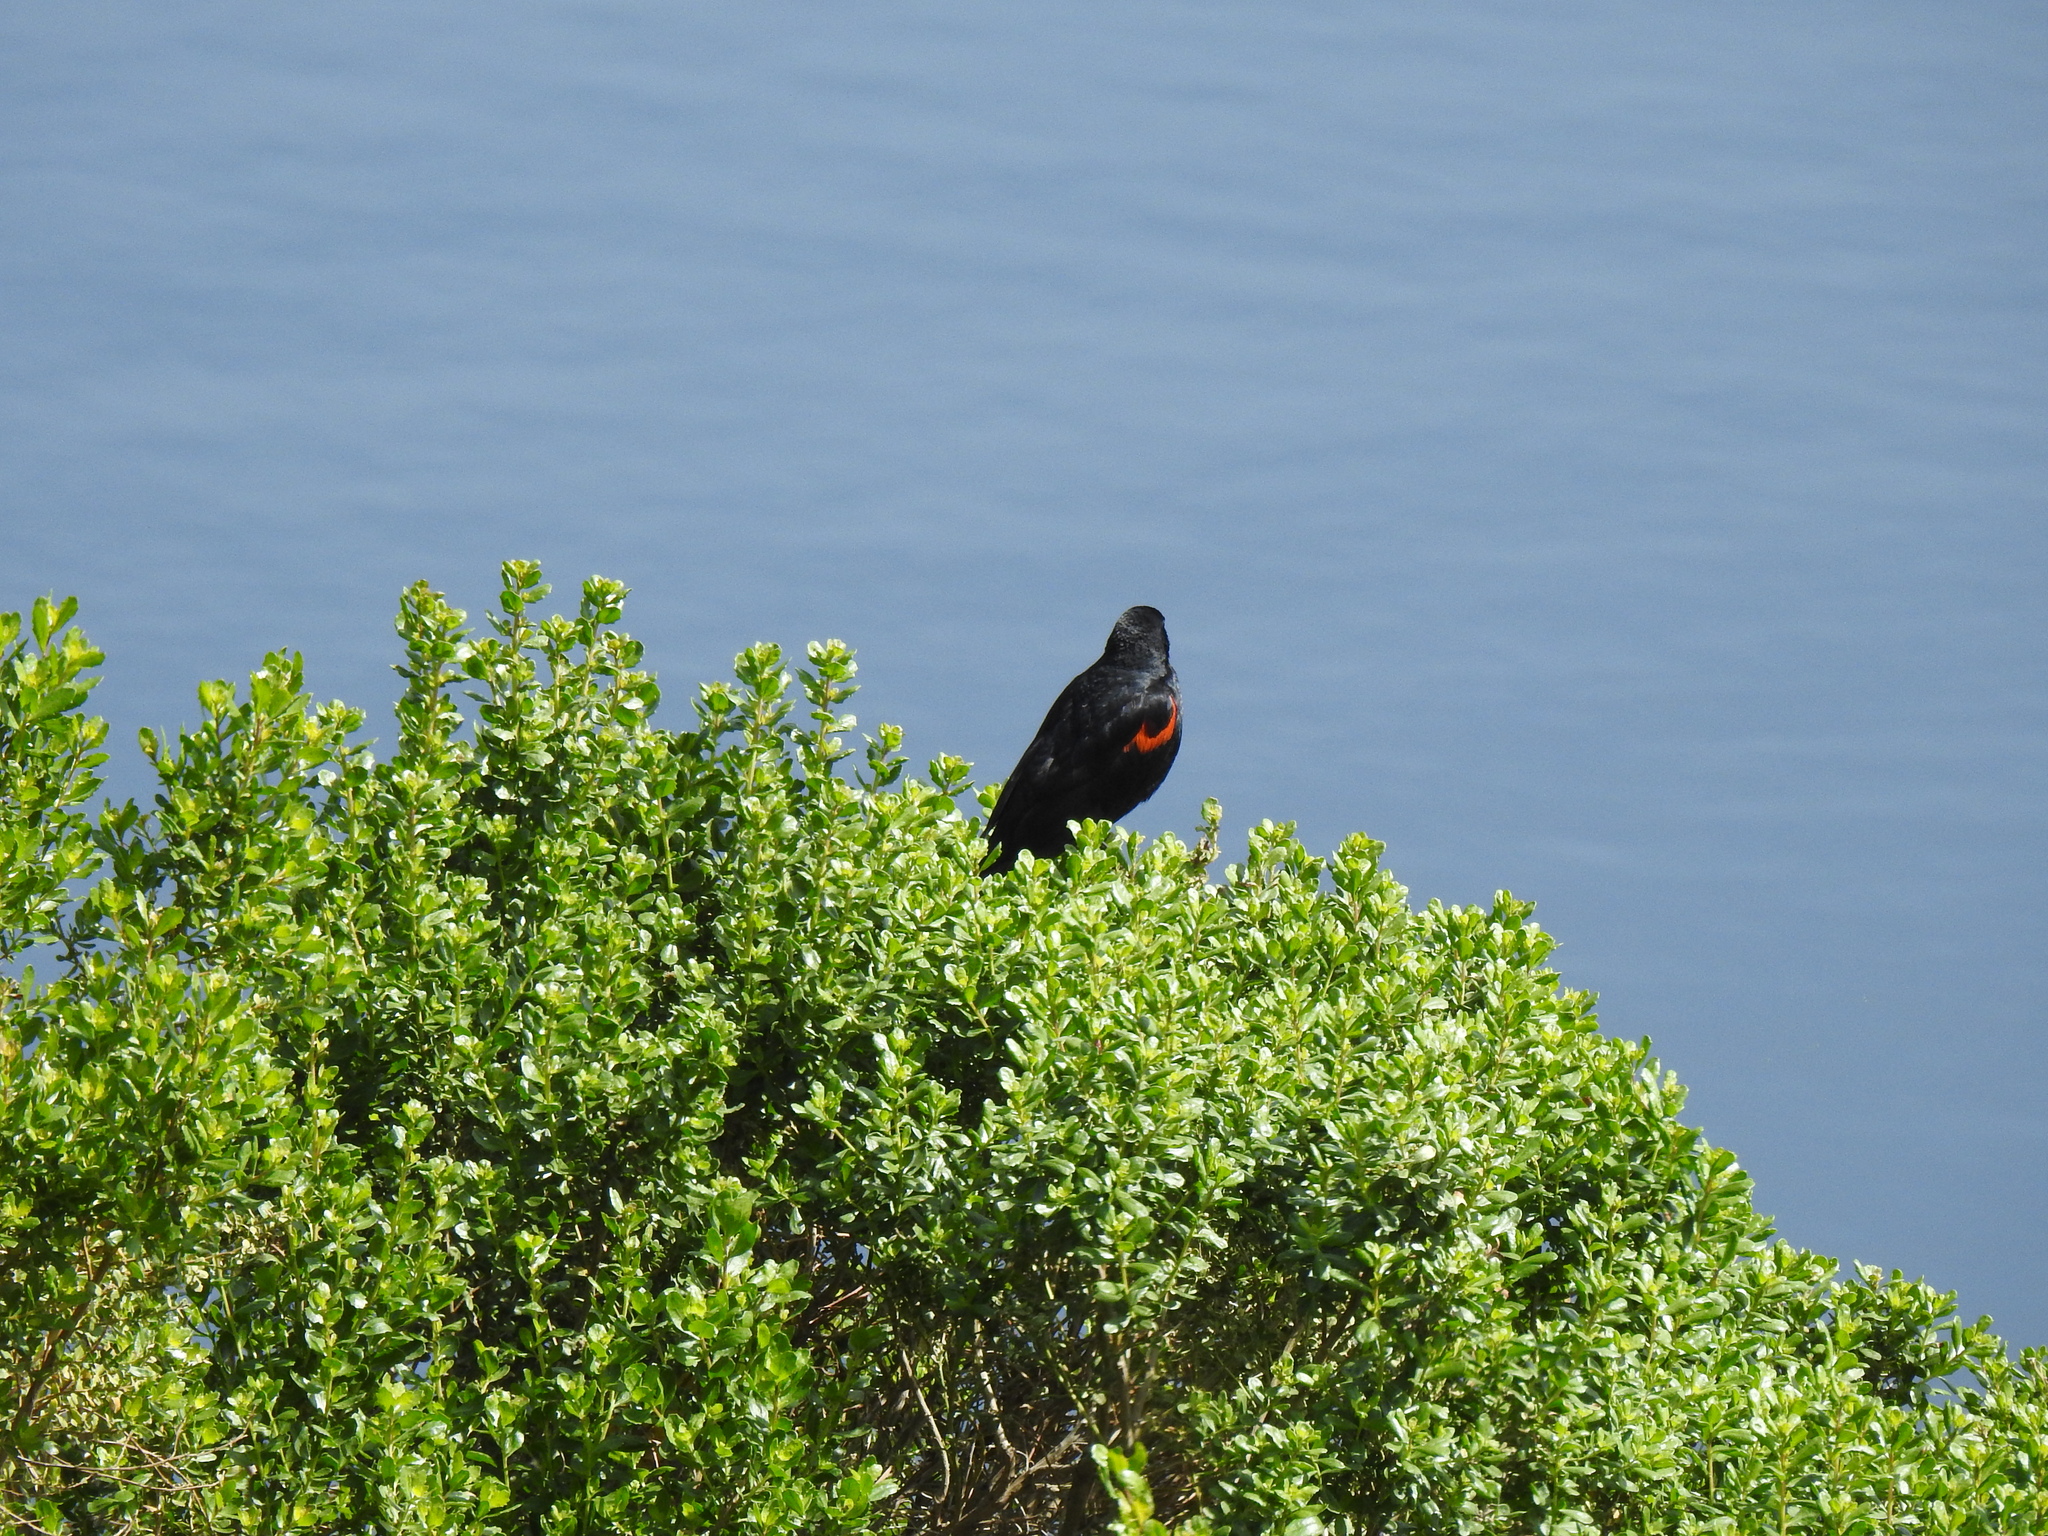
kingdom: Animalia
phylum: Chordata
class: Aves
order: Passeriformes
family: Icteridae
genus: Agelaius
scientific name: Agelaius phoeniceus
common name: Red-winged blackbird
